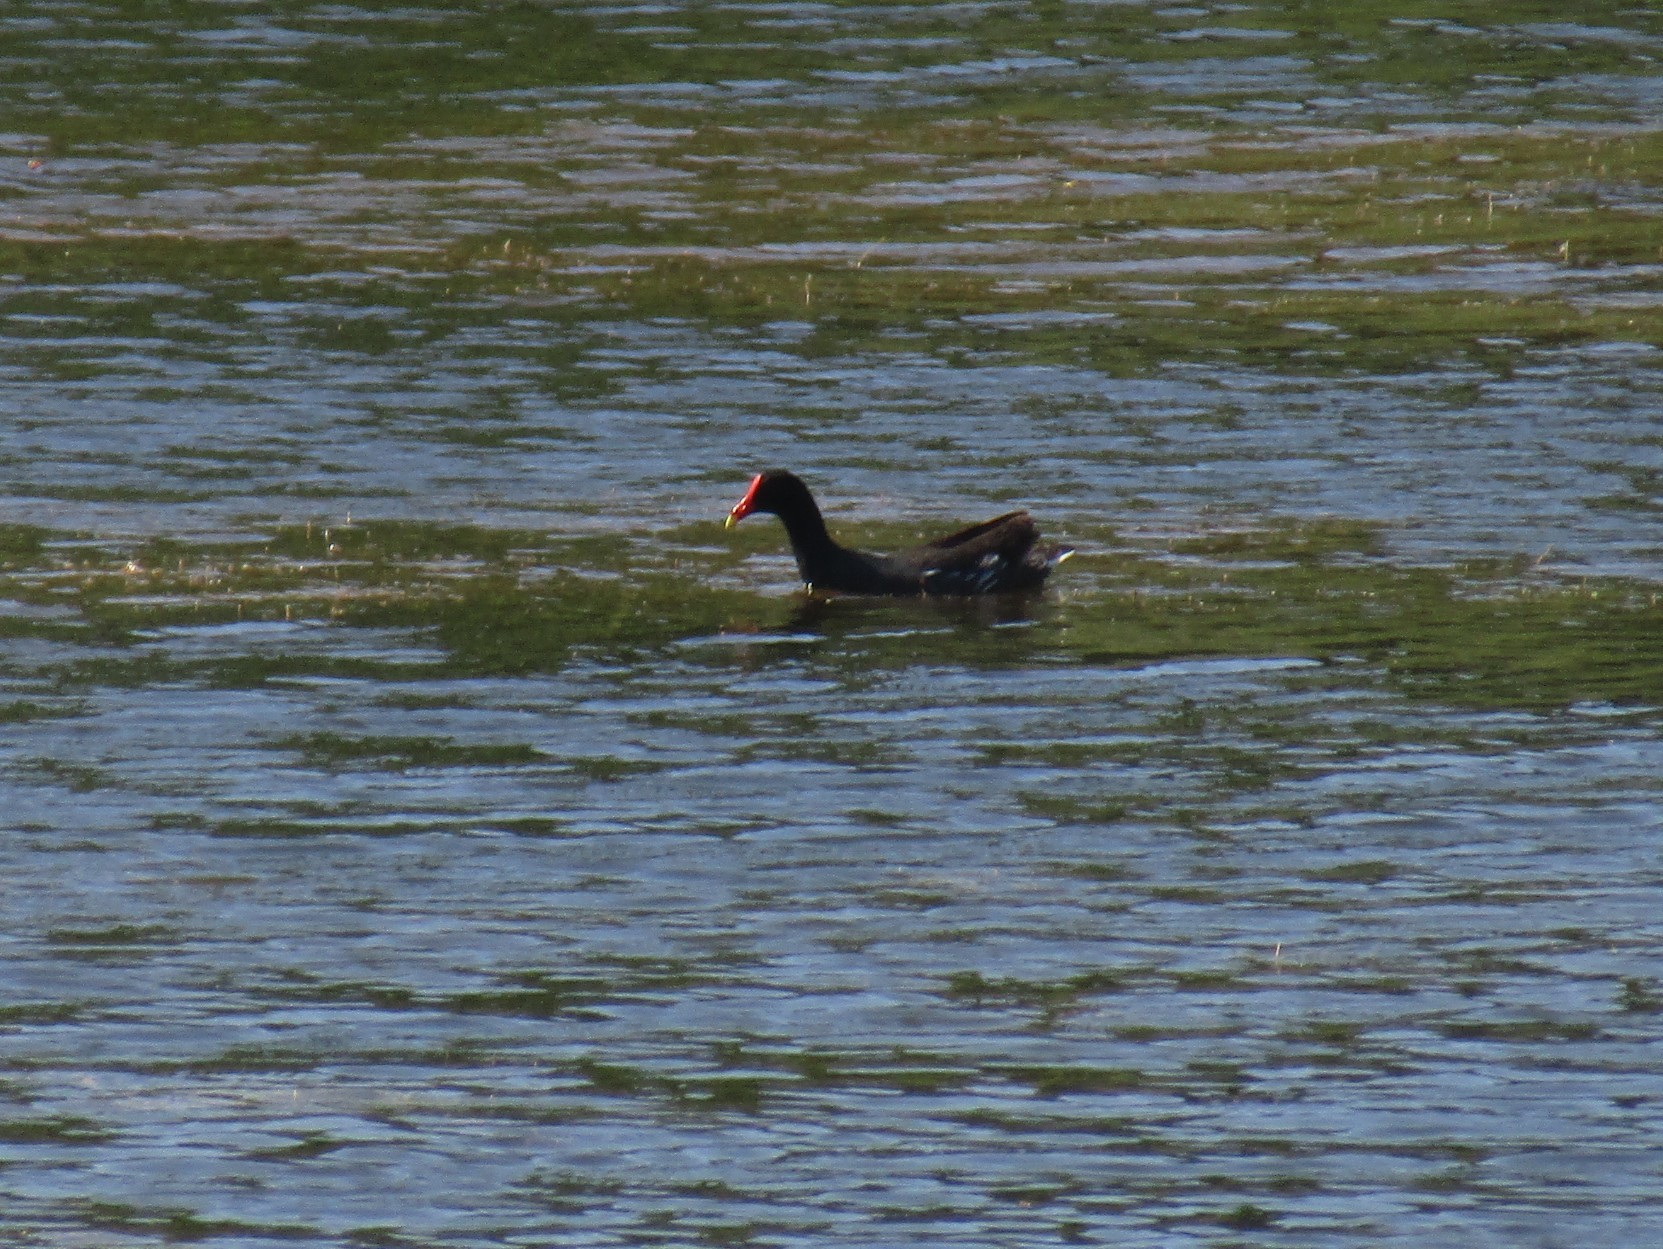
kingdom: Animalia
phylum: Chordata
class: Aves
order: Gruiformes
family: Rallidae
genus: Gallinula
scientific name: Gallinula chloropus
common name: Common moorhen
